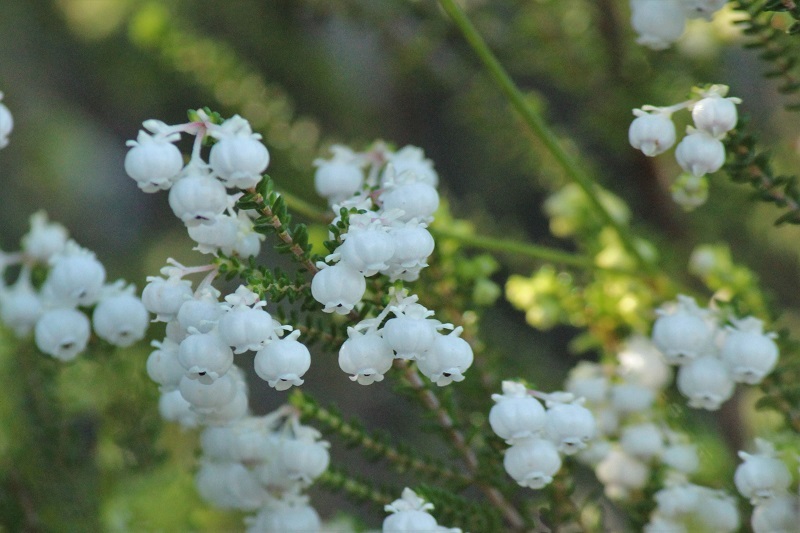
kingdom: Plantae
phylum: Tracheophyta
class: Magnoliopsida
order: Ericales
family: Ericaceae
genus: Erica
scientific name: Erica formosa
